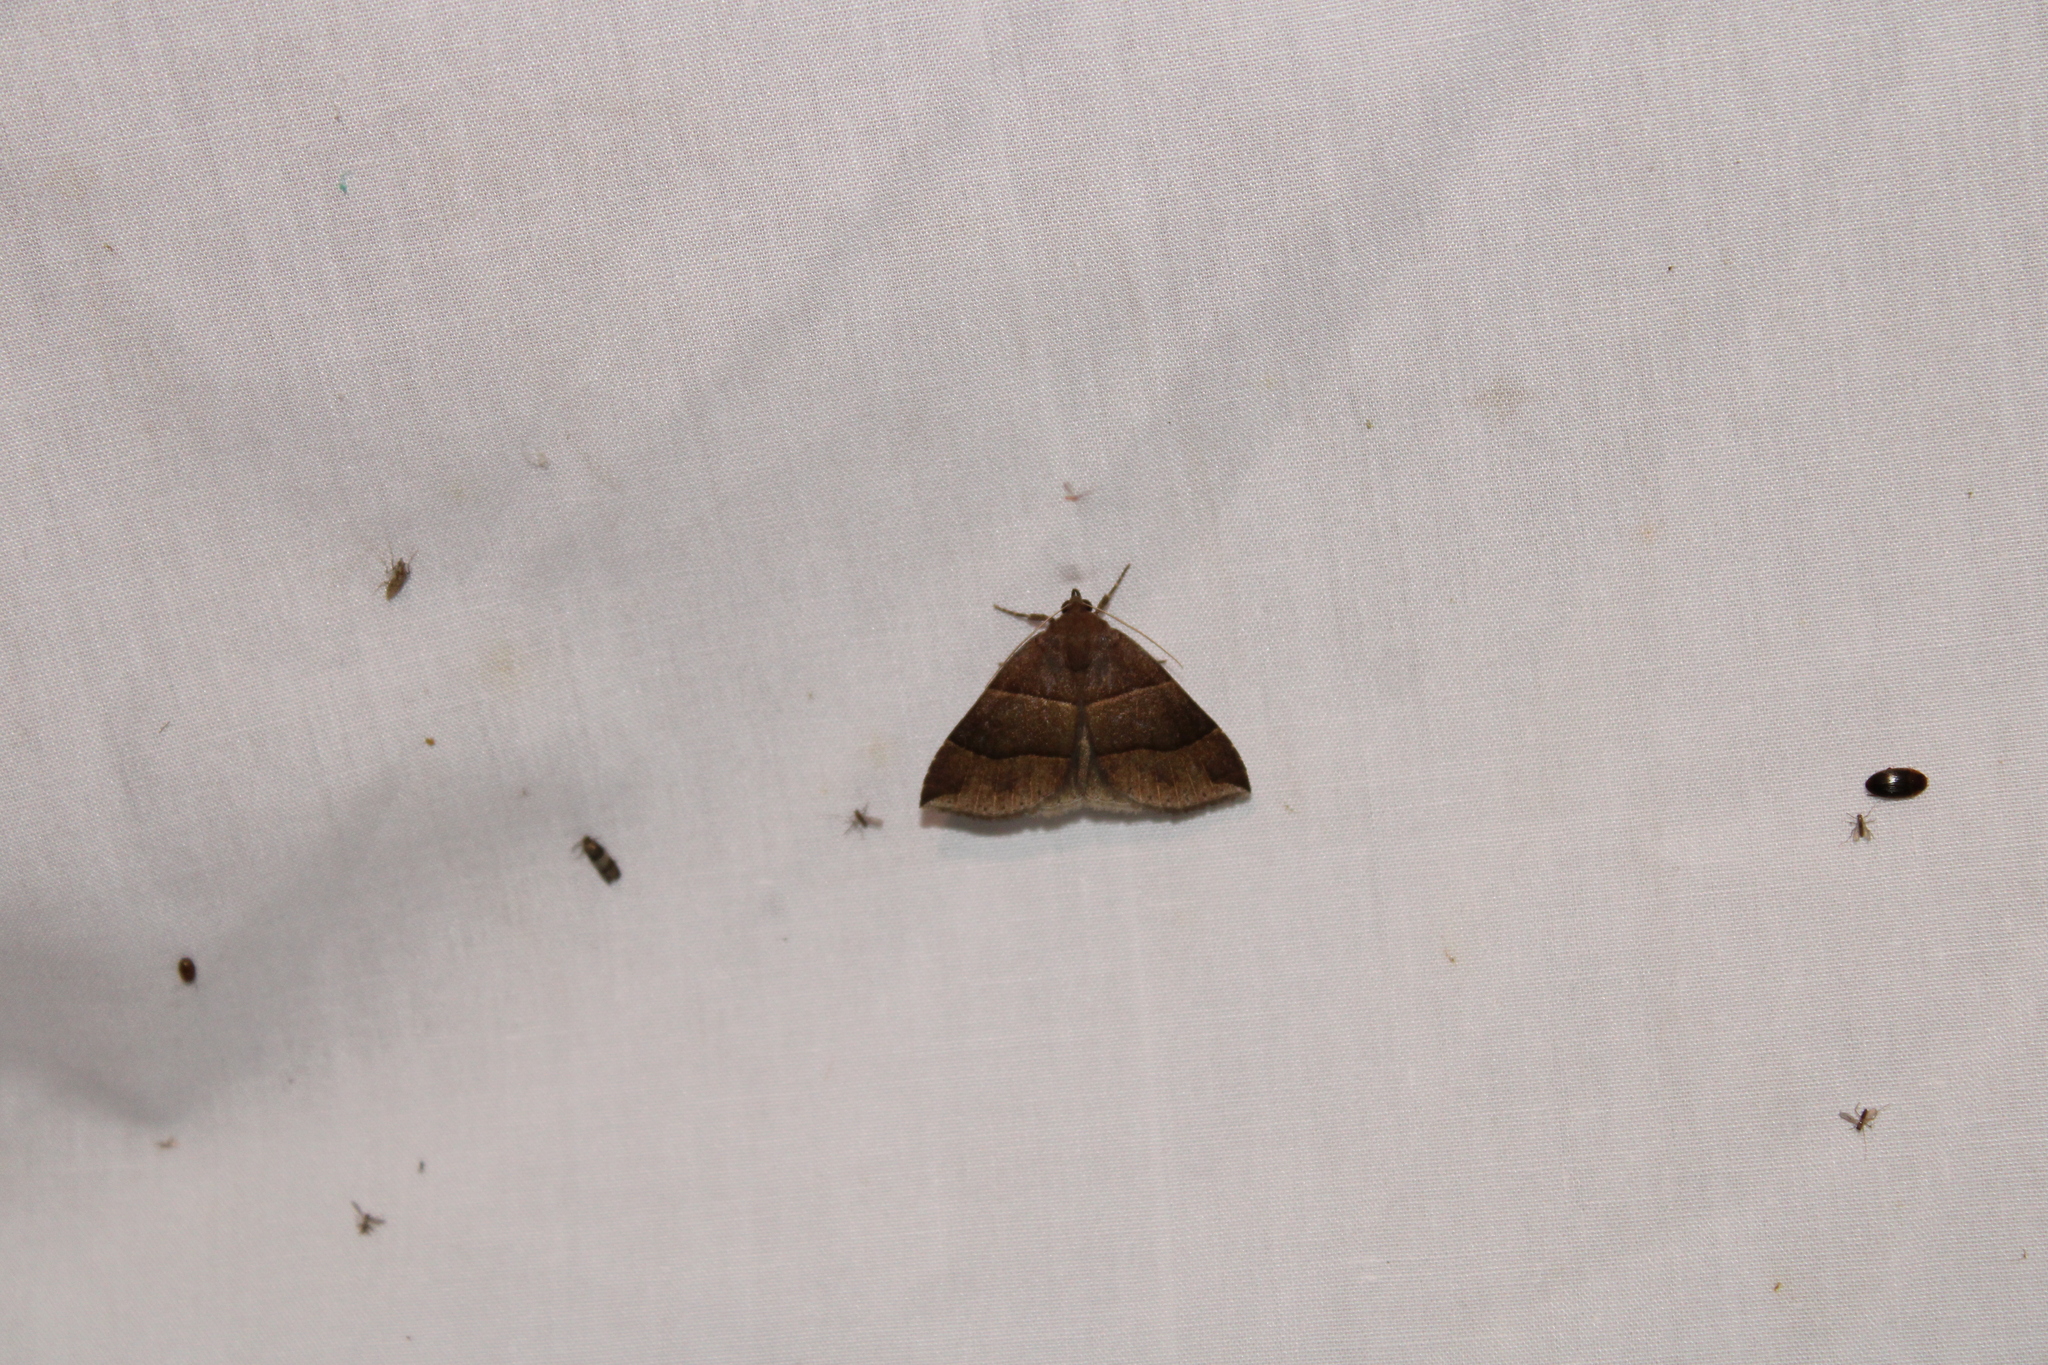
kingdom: Animalia
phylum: Arthropoda
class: Insecta
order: Lepidoptera
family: Erebidae
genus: Parallelia
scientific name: Parallelia bistriaris
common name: Maple looper moth
